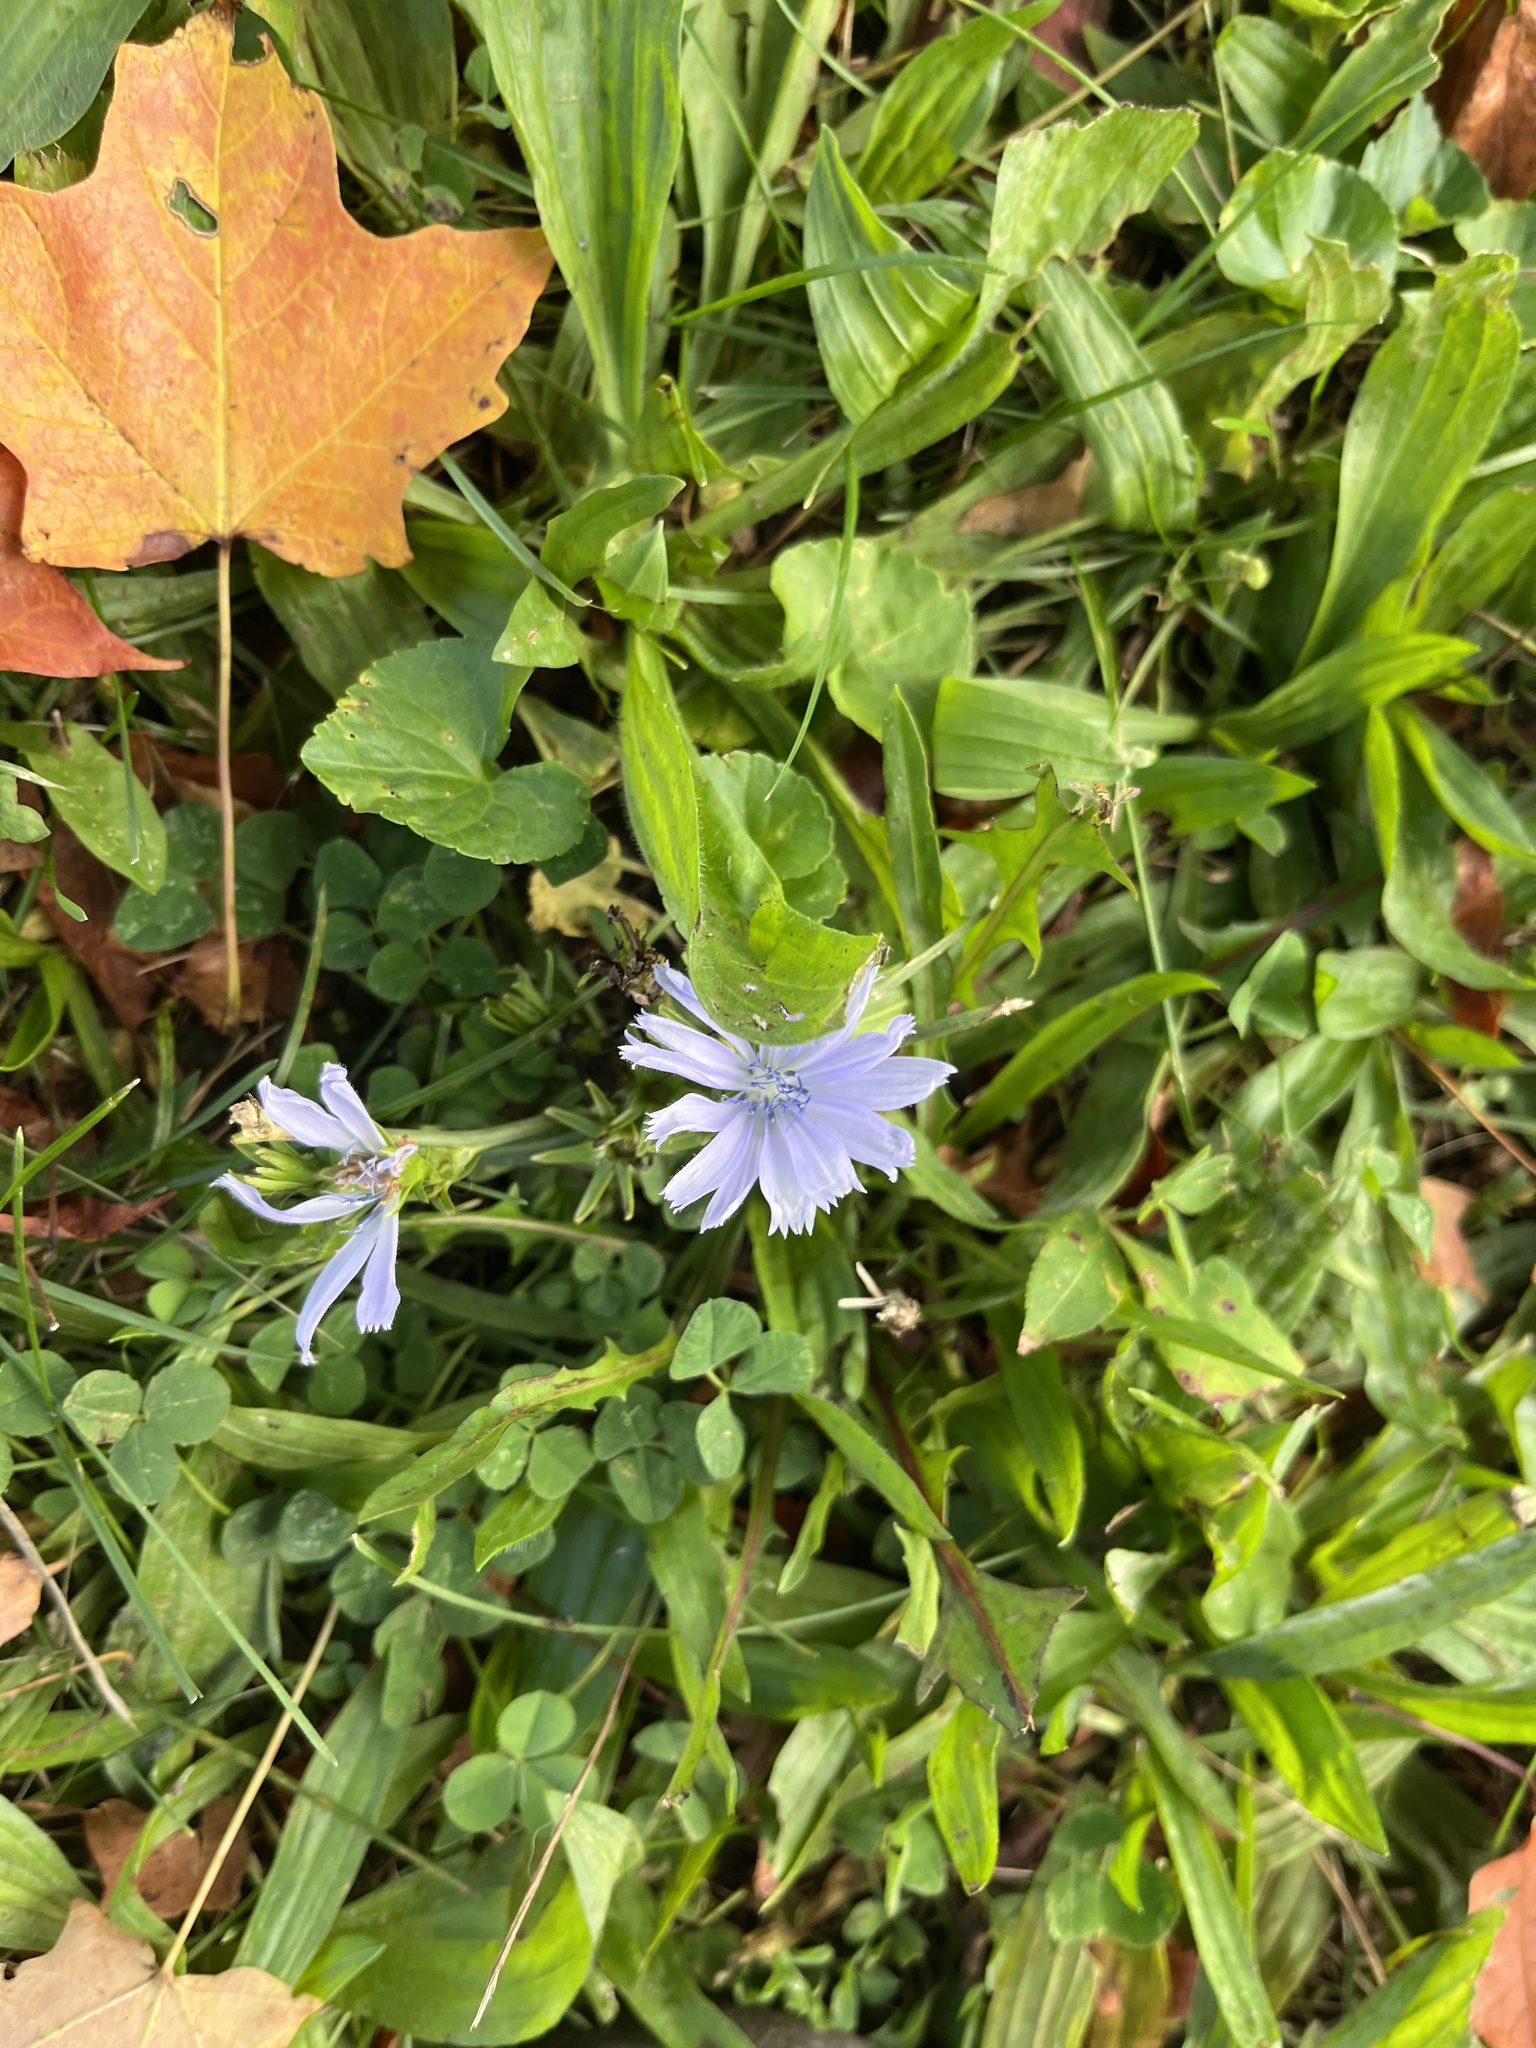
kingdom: Plantae
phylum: Tracheophyta
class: Magnoliopsida
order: Asterales
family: Asteraceae
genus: Cichorium
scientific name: Cichorium intybus
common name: Chicory
